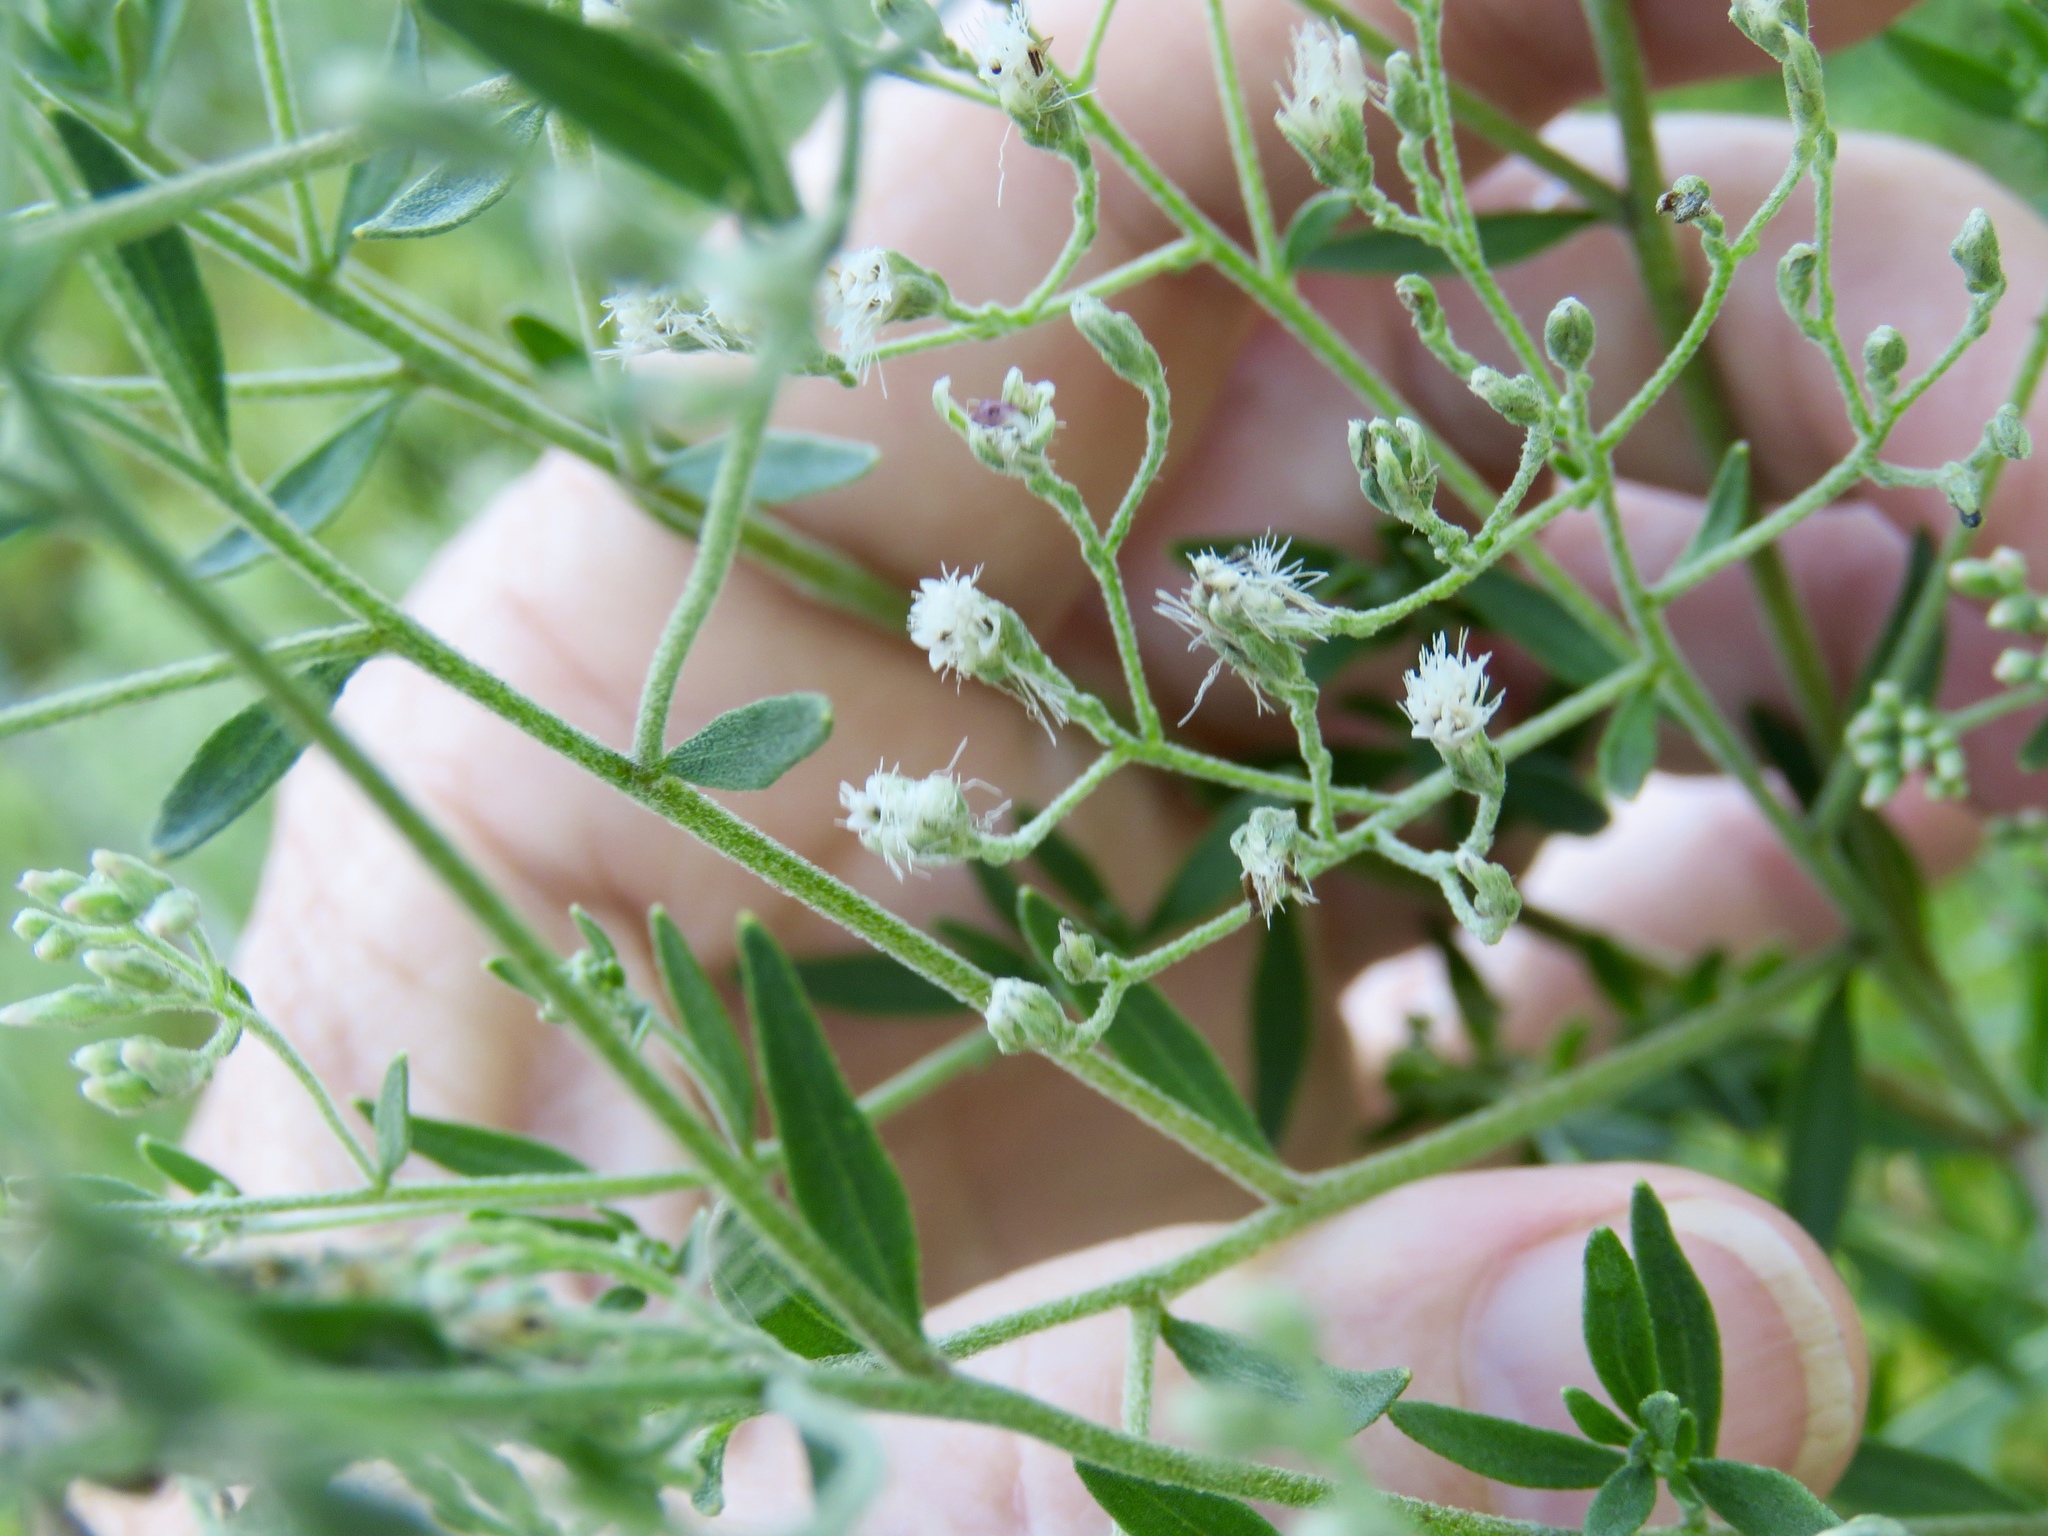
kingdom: Plantae
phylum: Tracheophyta
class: Magnoliopsida
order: Asterales
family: Asteraceae
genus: Eupatorium
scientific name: Eupatorium semiserratum
